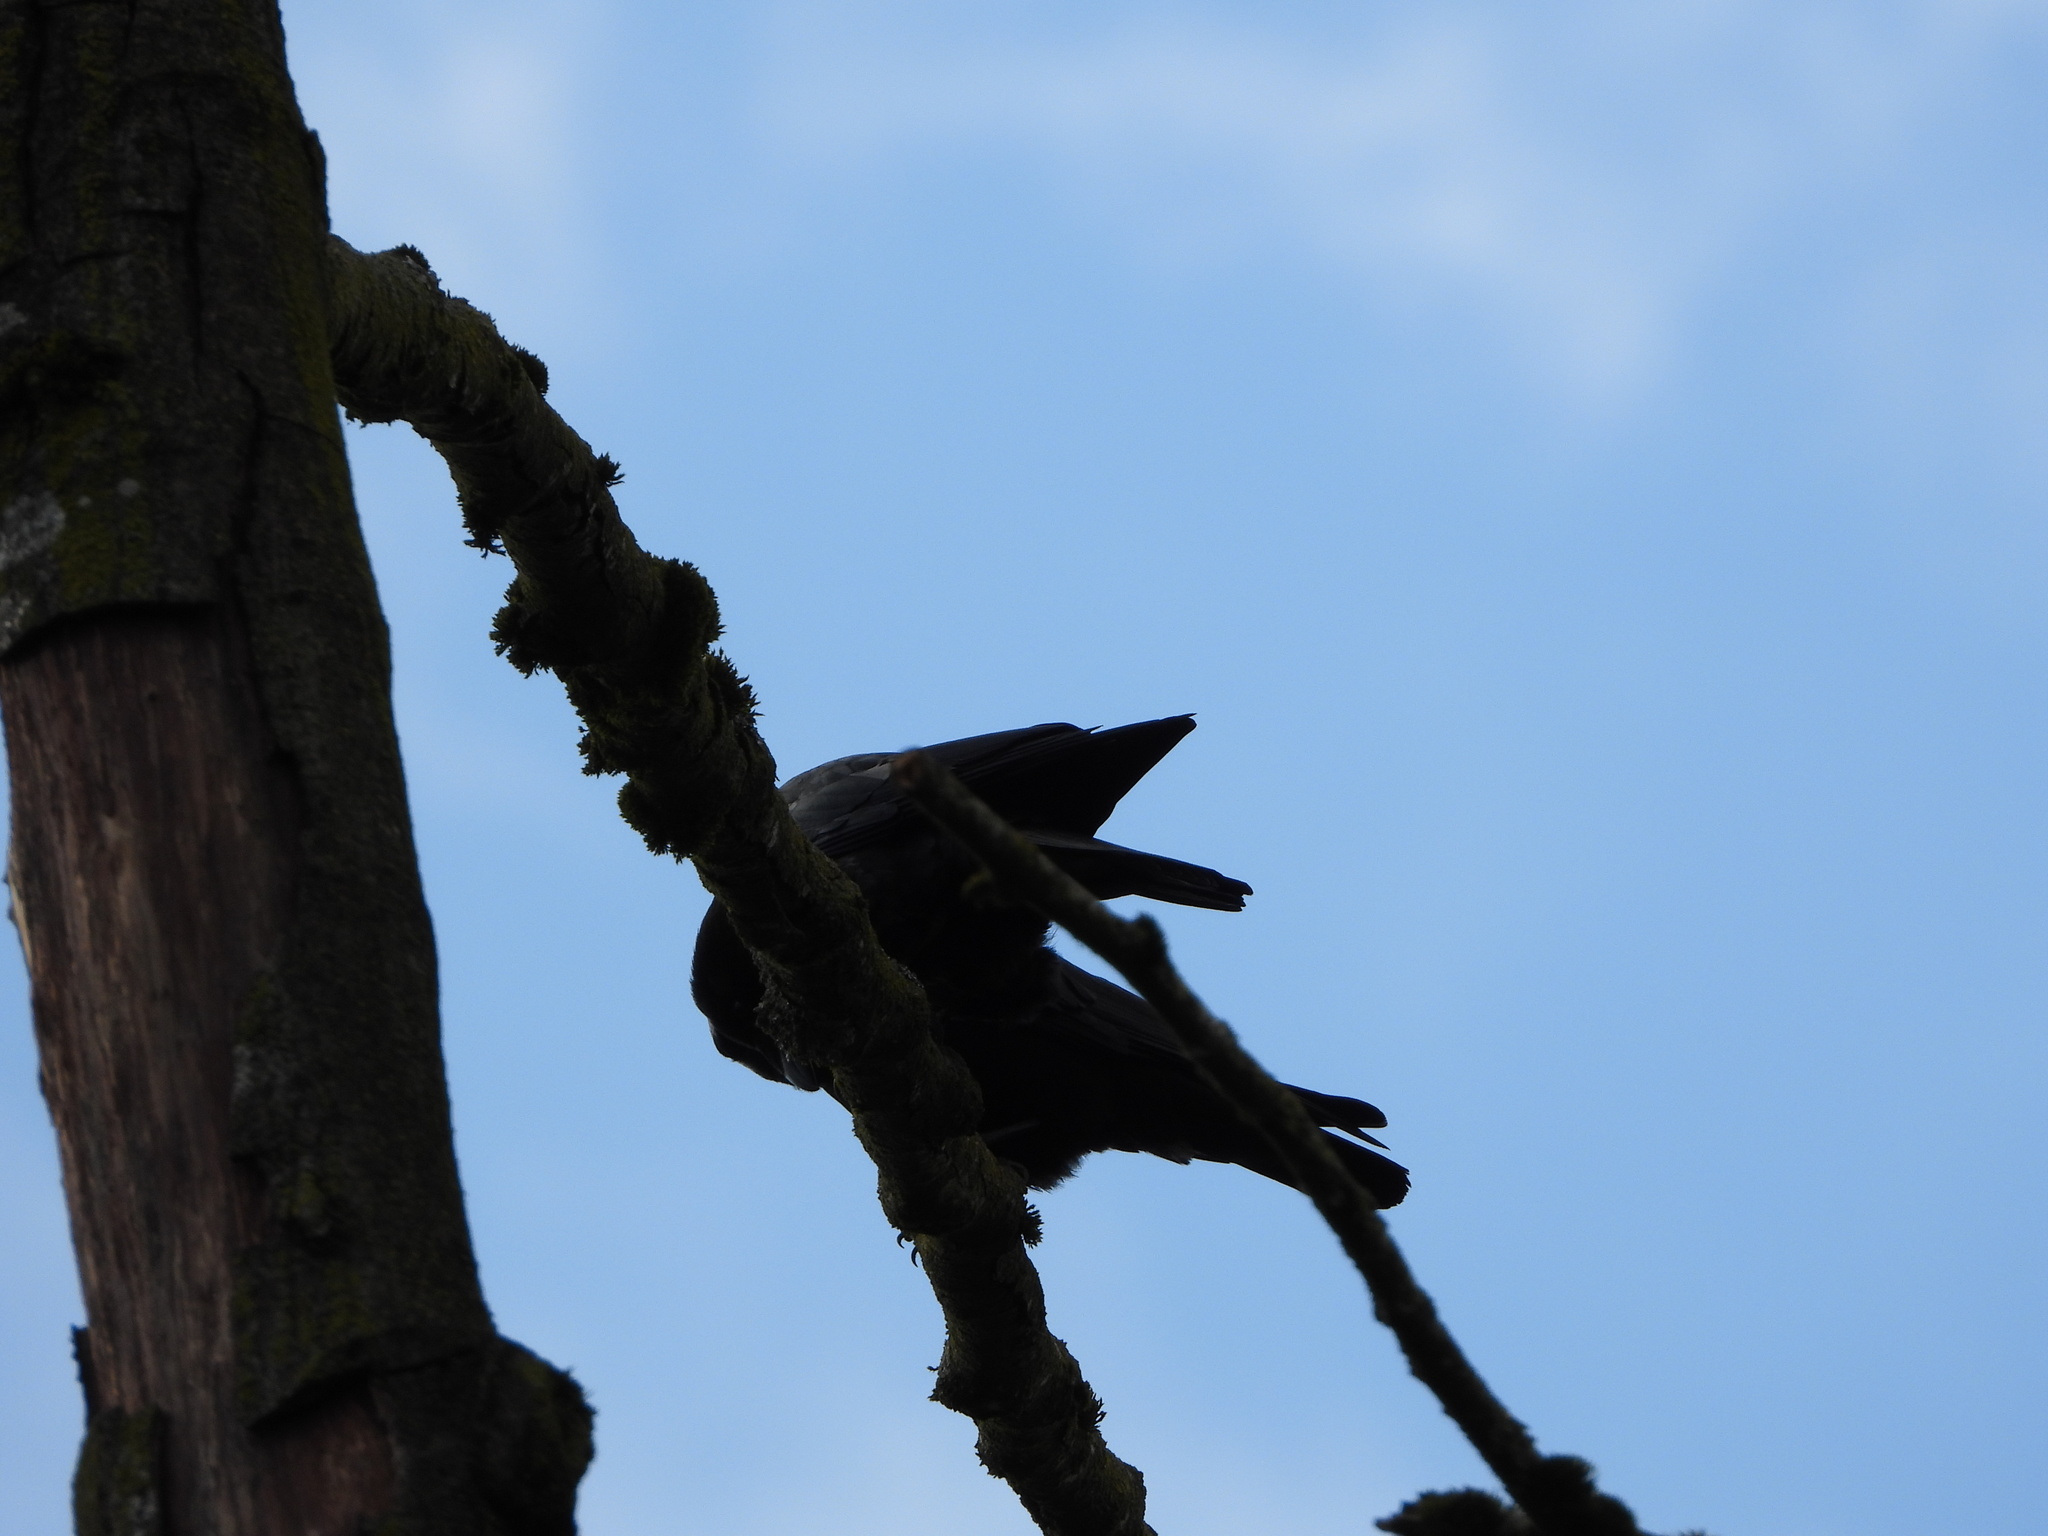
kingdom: Animalia
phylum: Chordata
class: Aves
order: Passeriformes
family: Corvidae
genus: Corvus
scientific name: Corvus brachyrhynchos
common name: American crow
